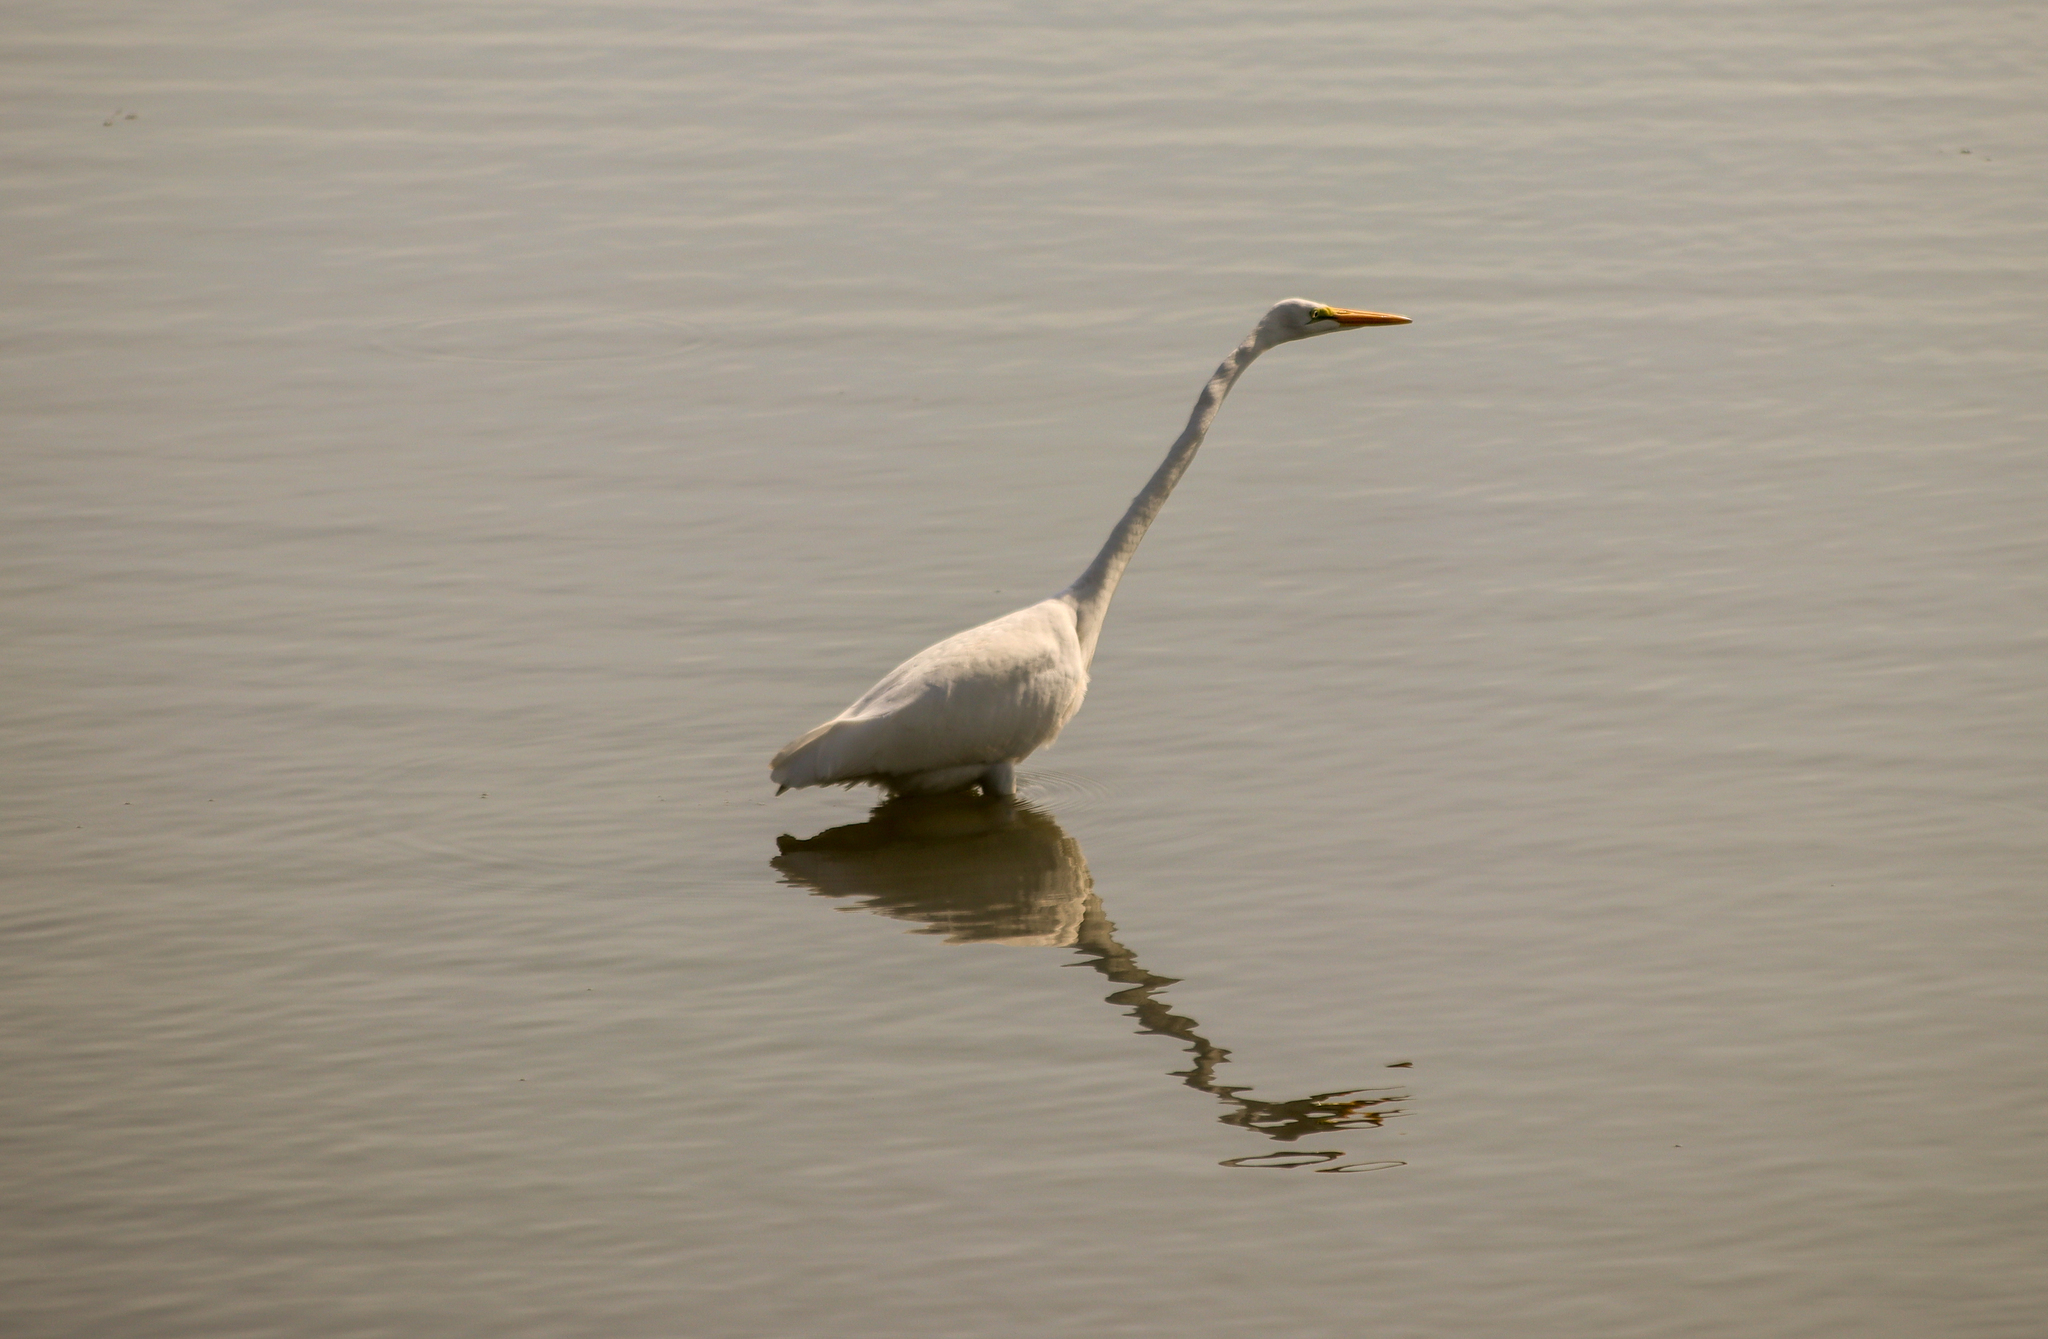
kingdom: Animalia
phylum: Chordata
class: Aves
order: Pelecaniformes
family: Ardeidae
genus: Ardea
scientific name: Ardea alba
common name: Great egret
